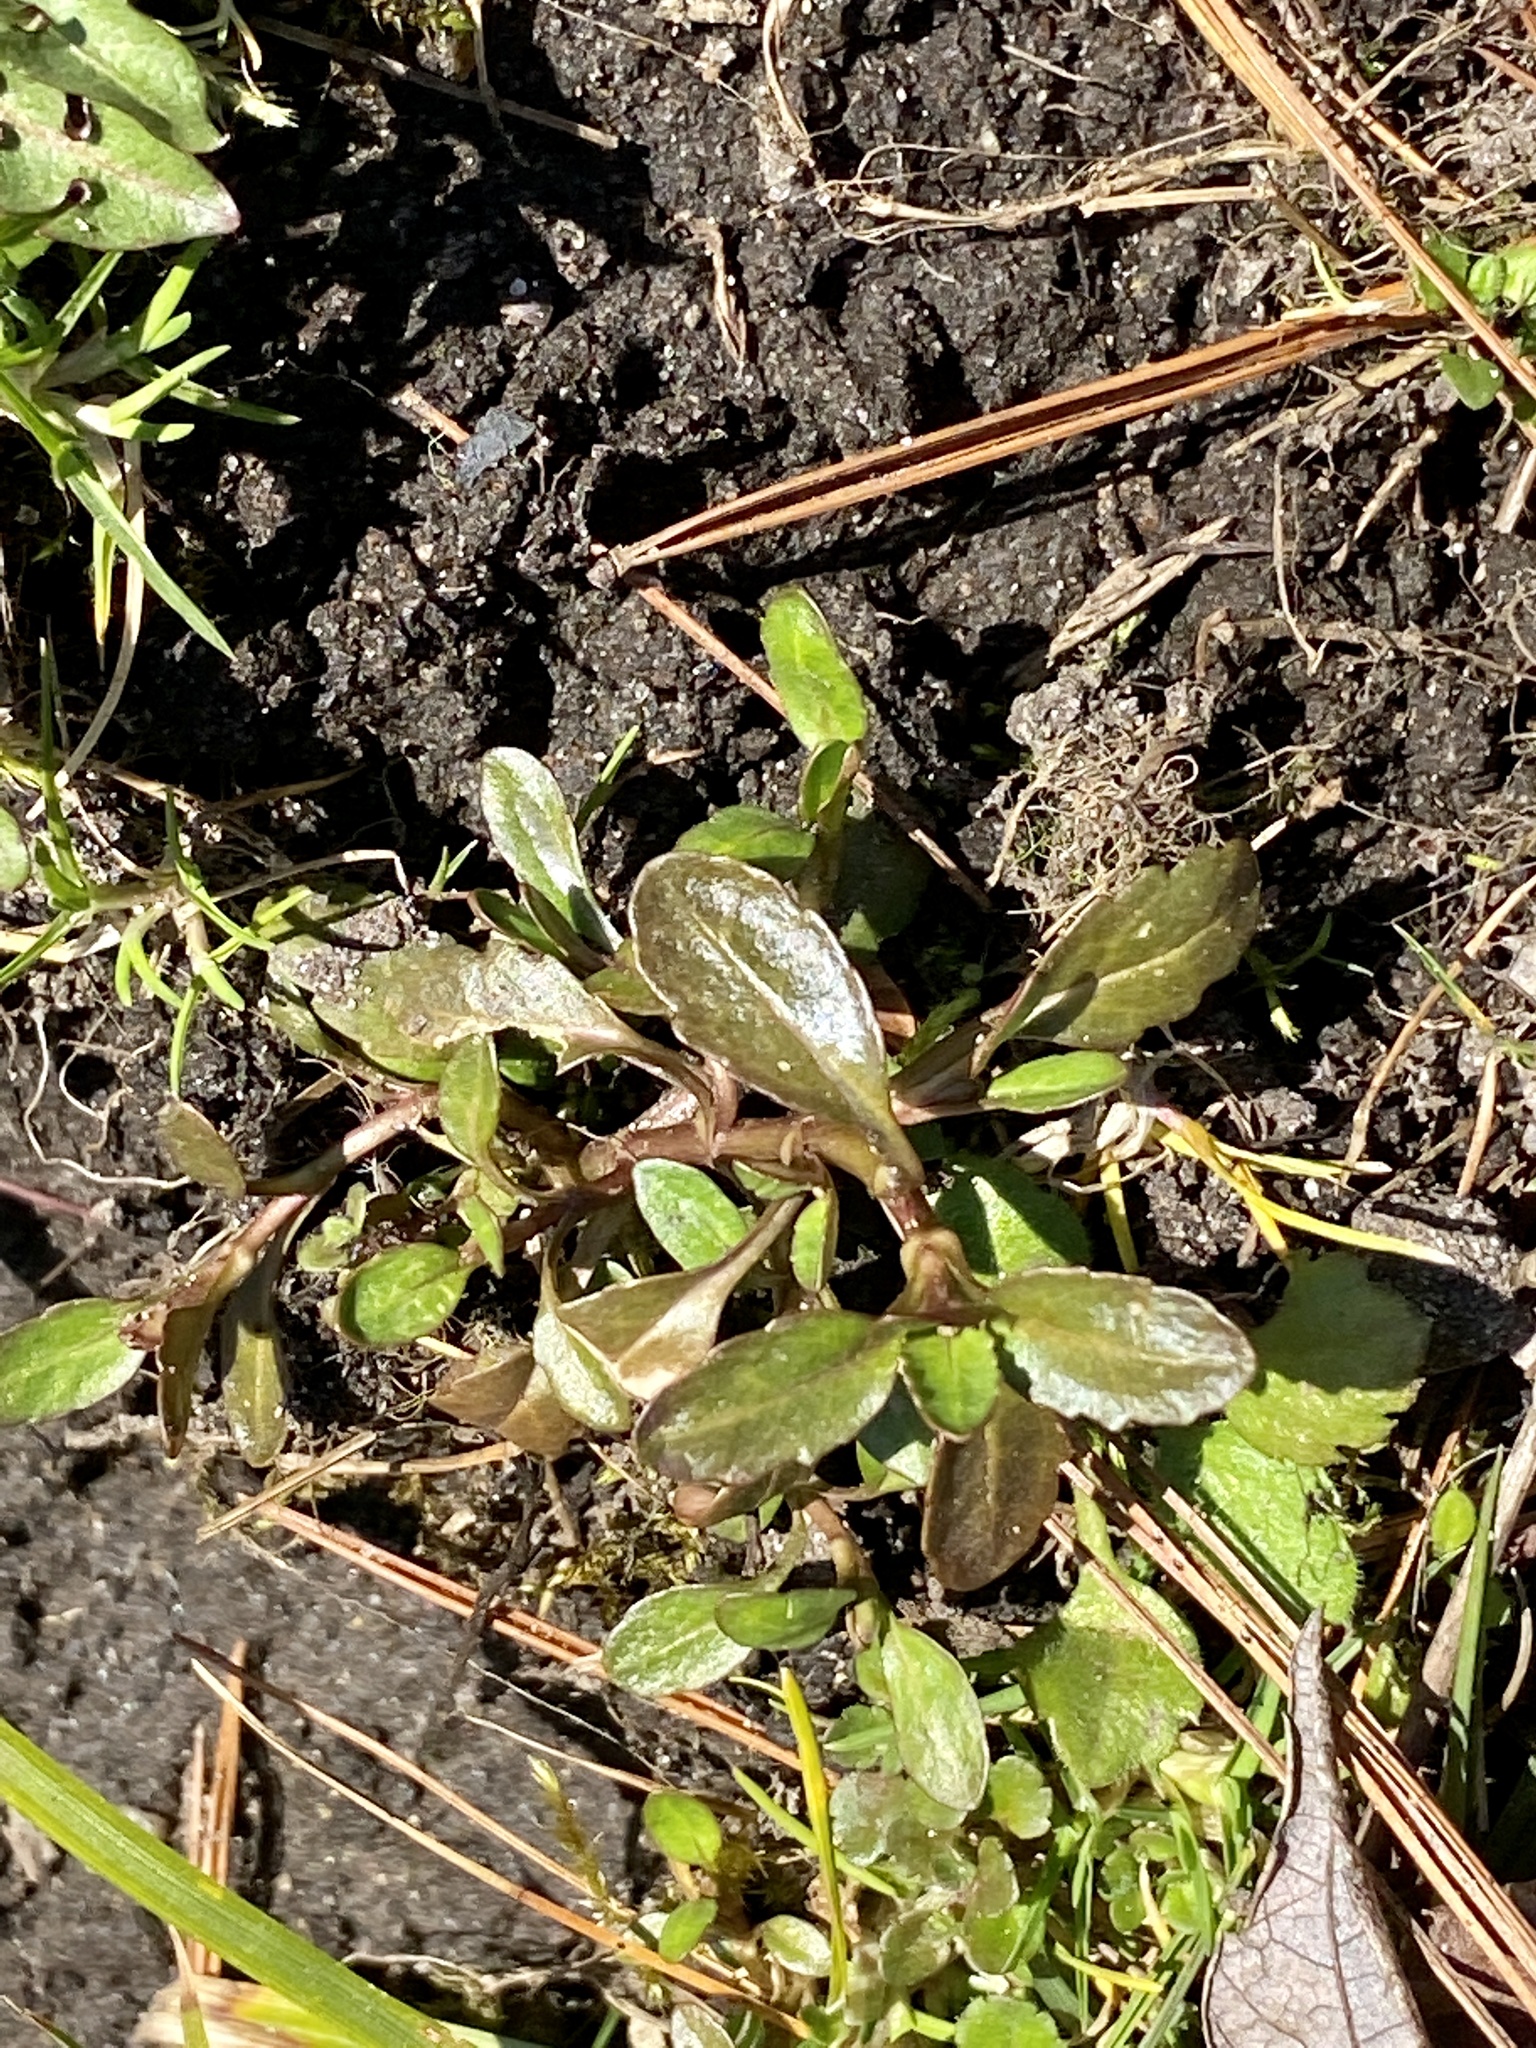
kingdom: Plantae
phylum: Tracheophyta
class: Magnoliopsida
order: Lamiales
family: Plantaginaceae
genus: Veronica
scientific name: Veronica peregrina
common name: Neckweed
